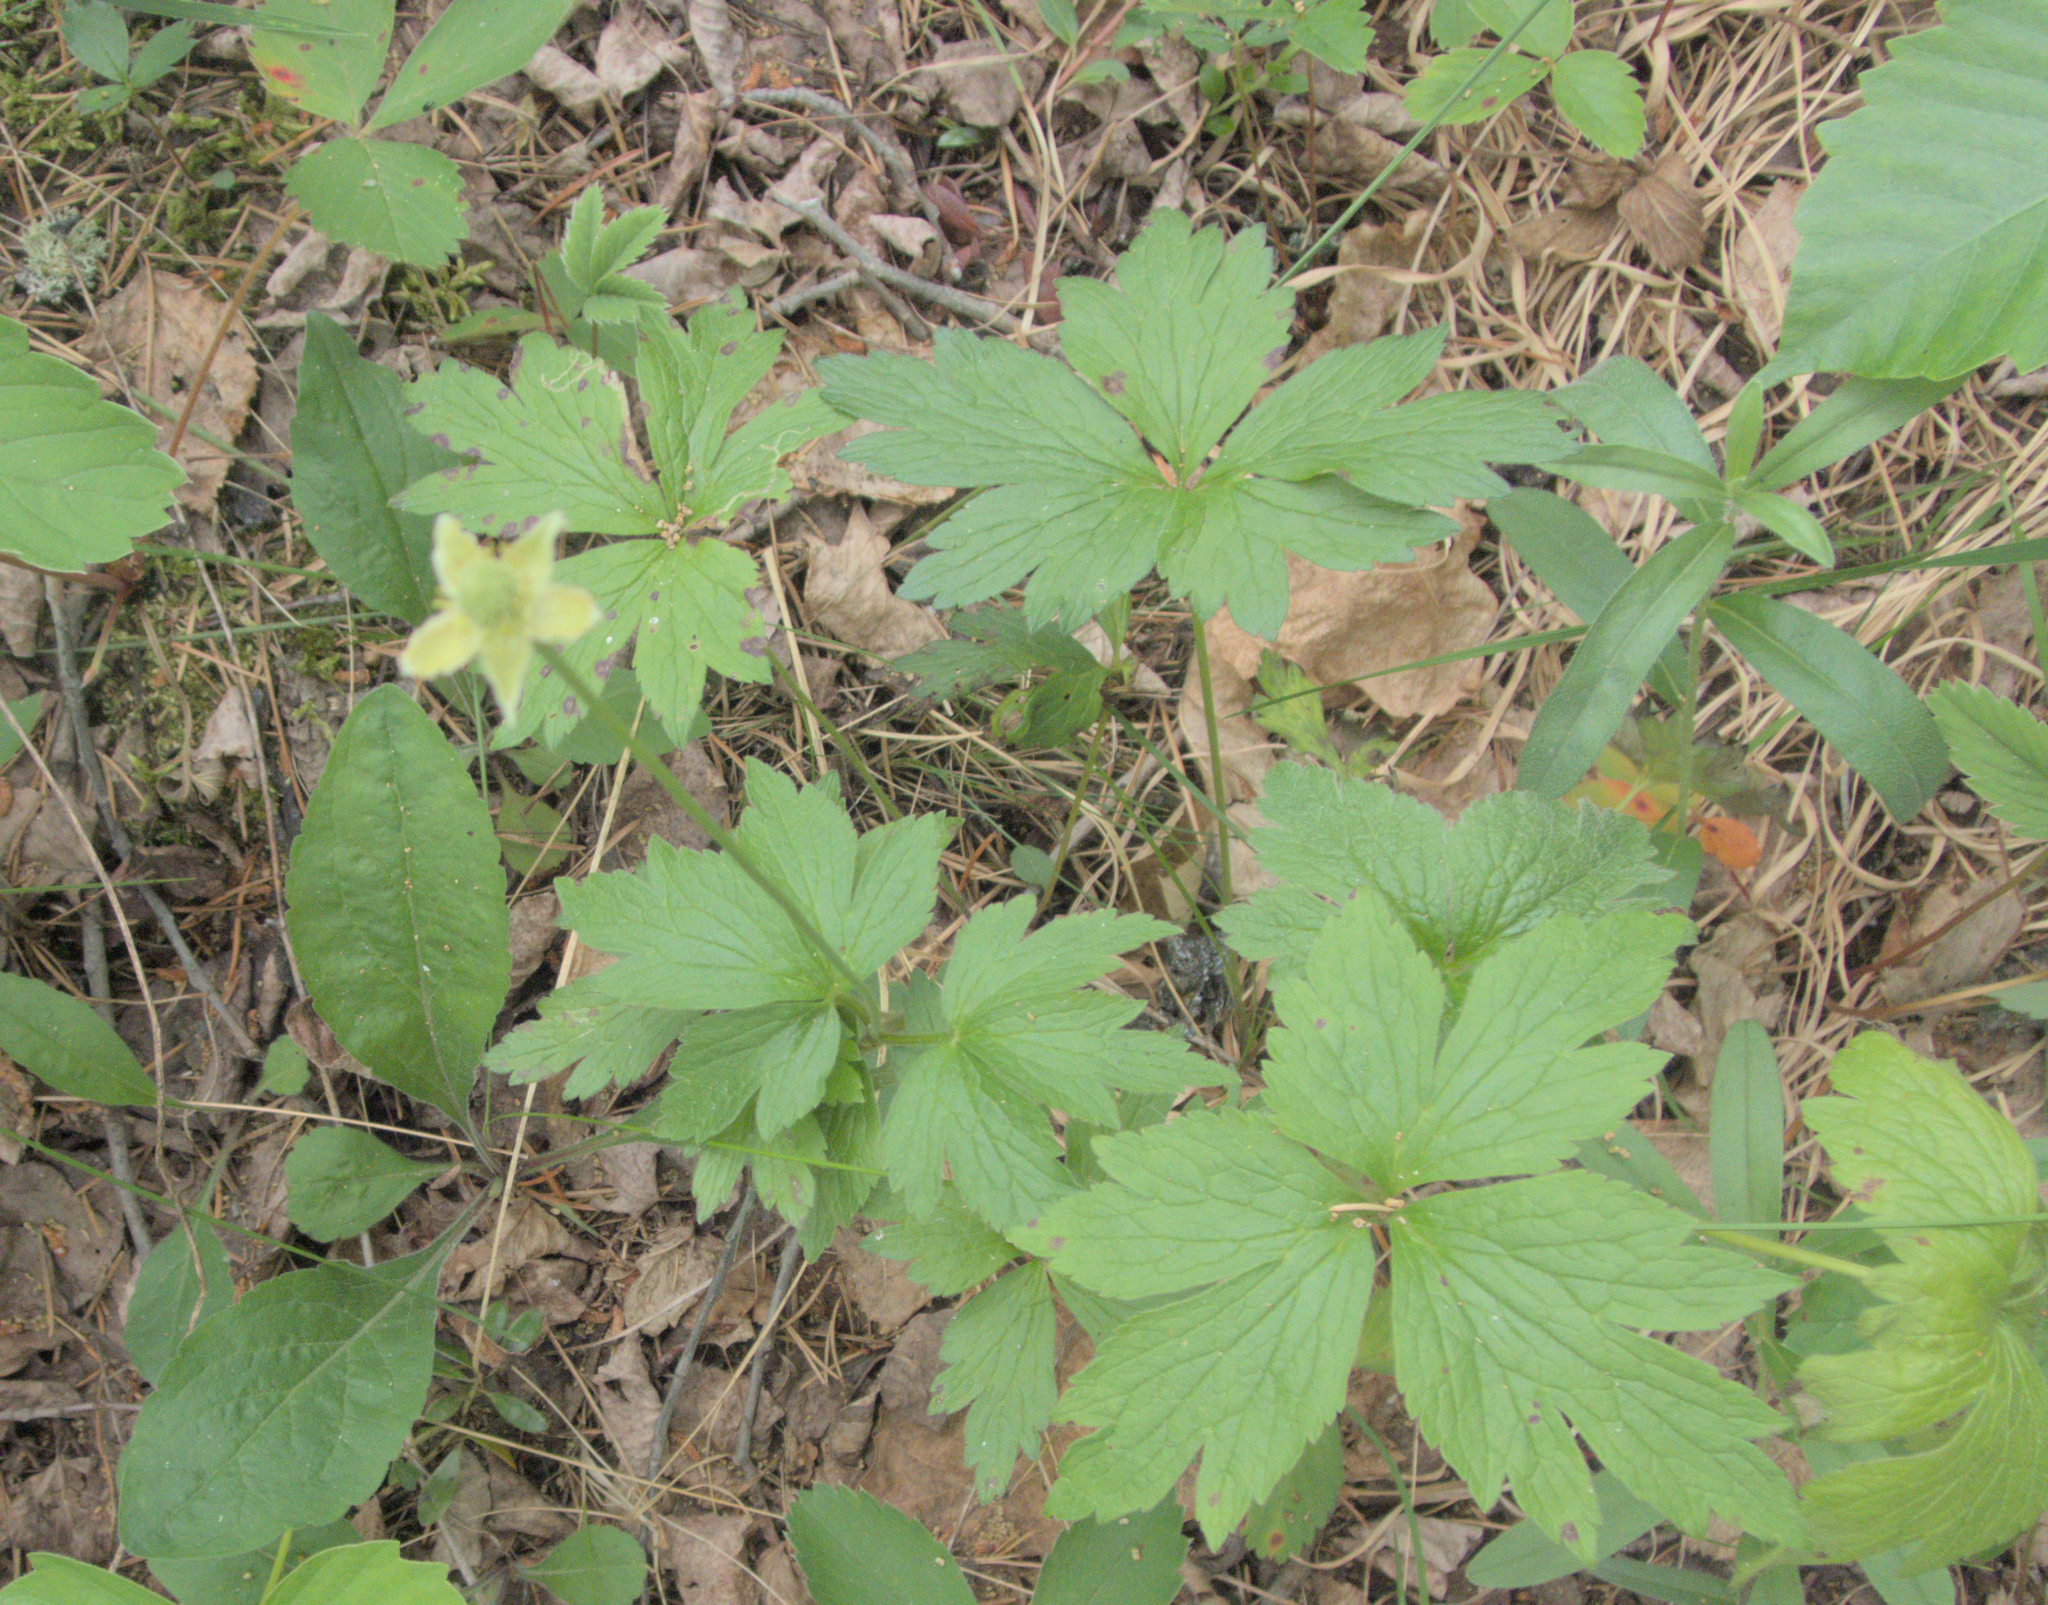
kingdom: Plantae
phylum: Tracheophyta
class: Magnoliopsida
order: Ranunculales
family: Ranunculaceae
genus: Anemone
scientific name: Anemone cylindrica
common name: Candle anemone
